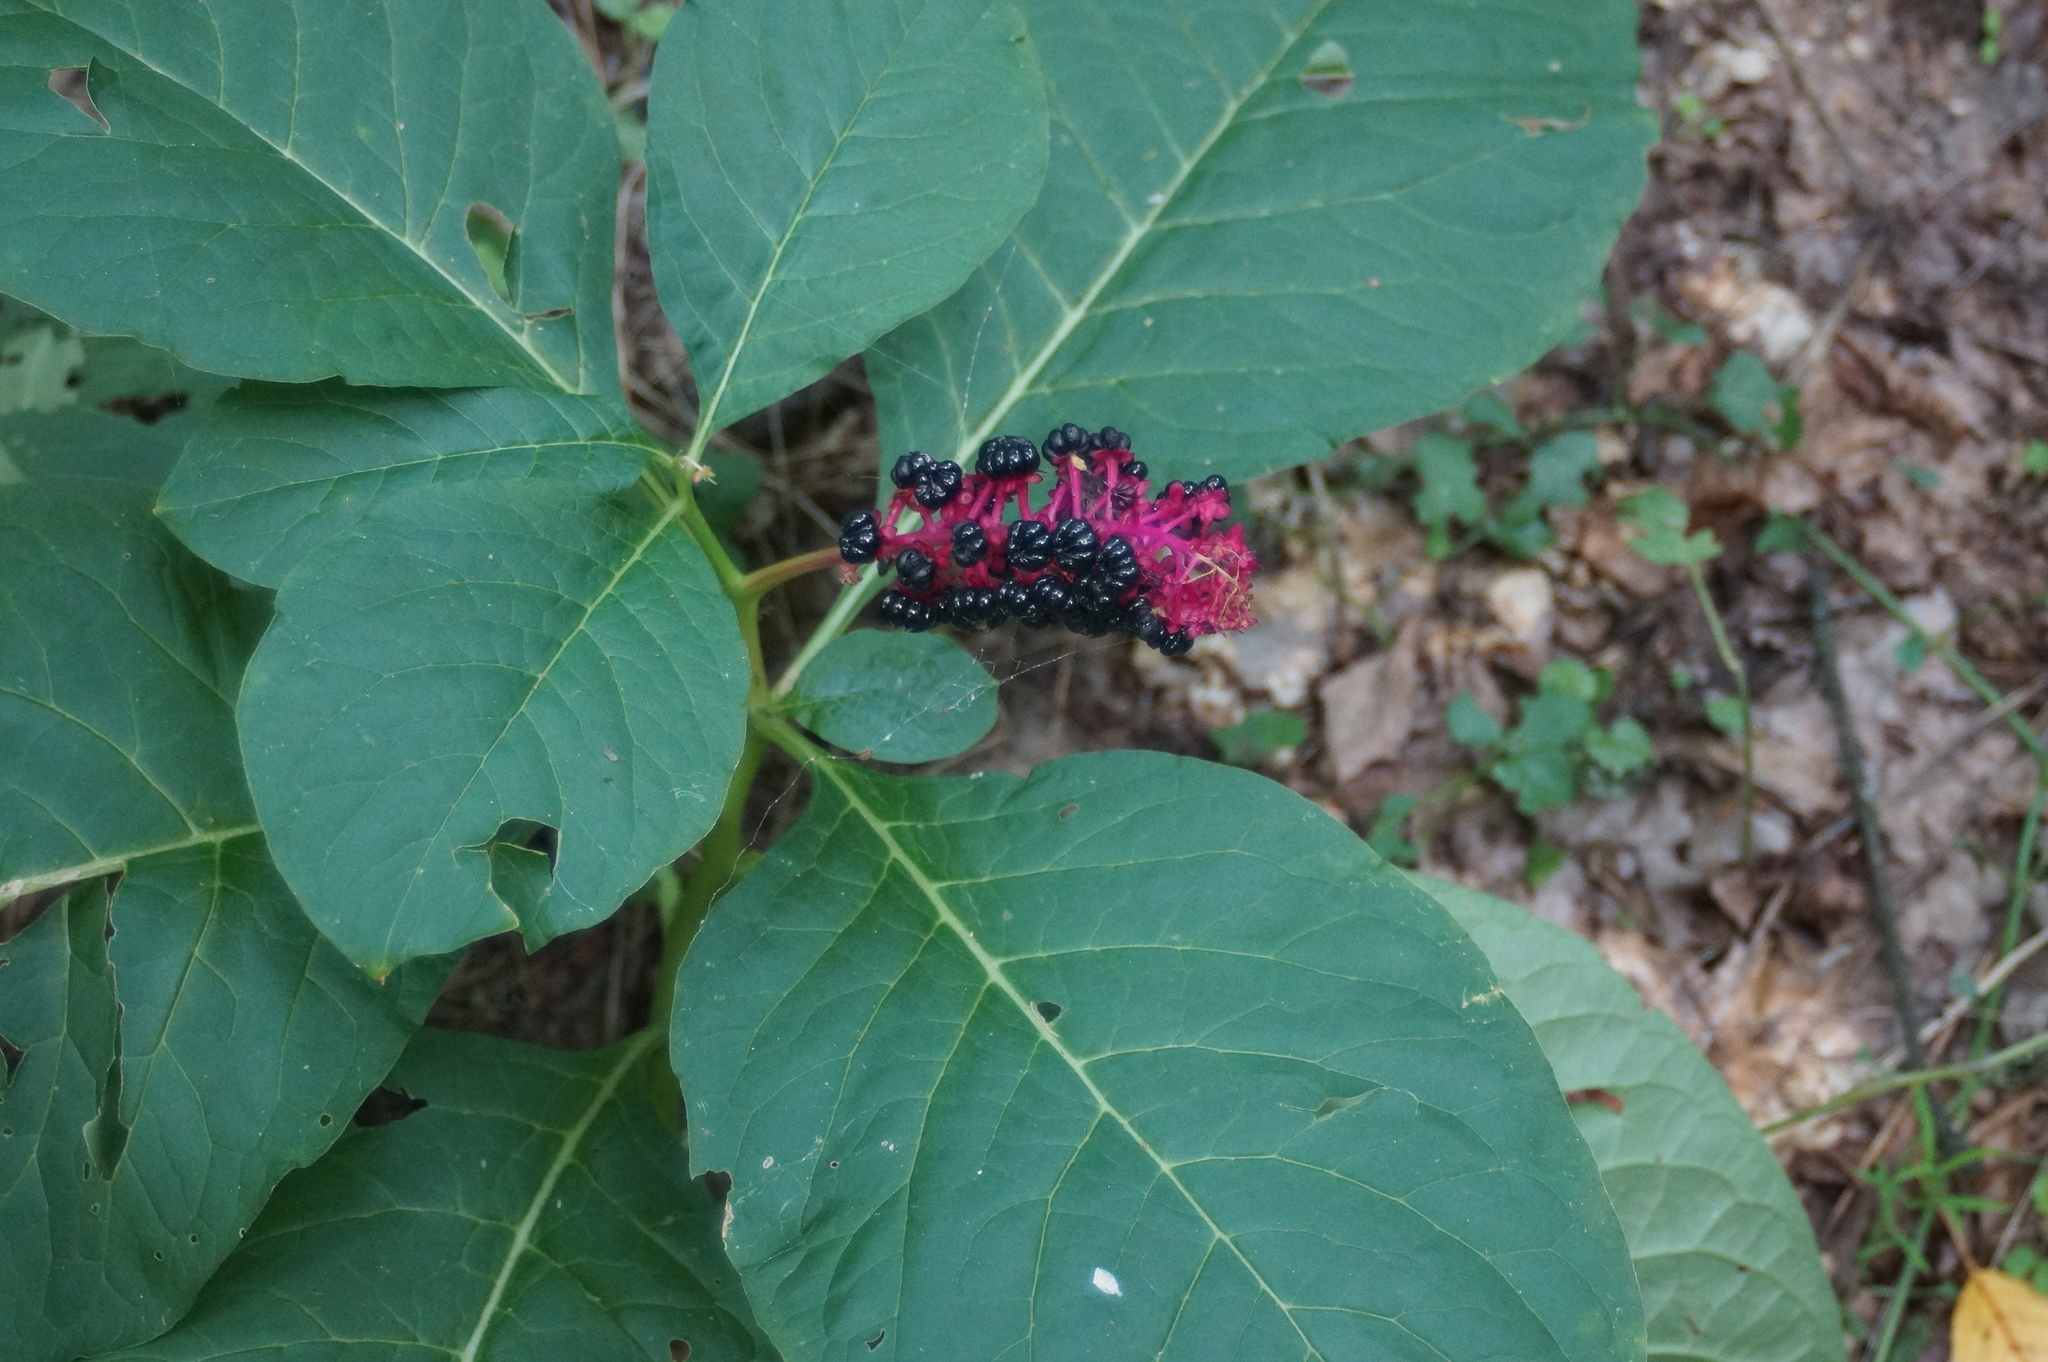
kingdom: Plantae
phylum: Tracheophyta
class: Magnoliopsida
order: Caryophyllales
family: Phytolaccaceae
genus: Phytolacca
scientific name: Phytolacca acinosa
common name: Indian pokeweed
